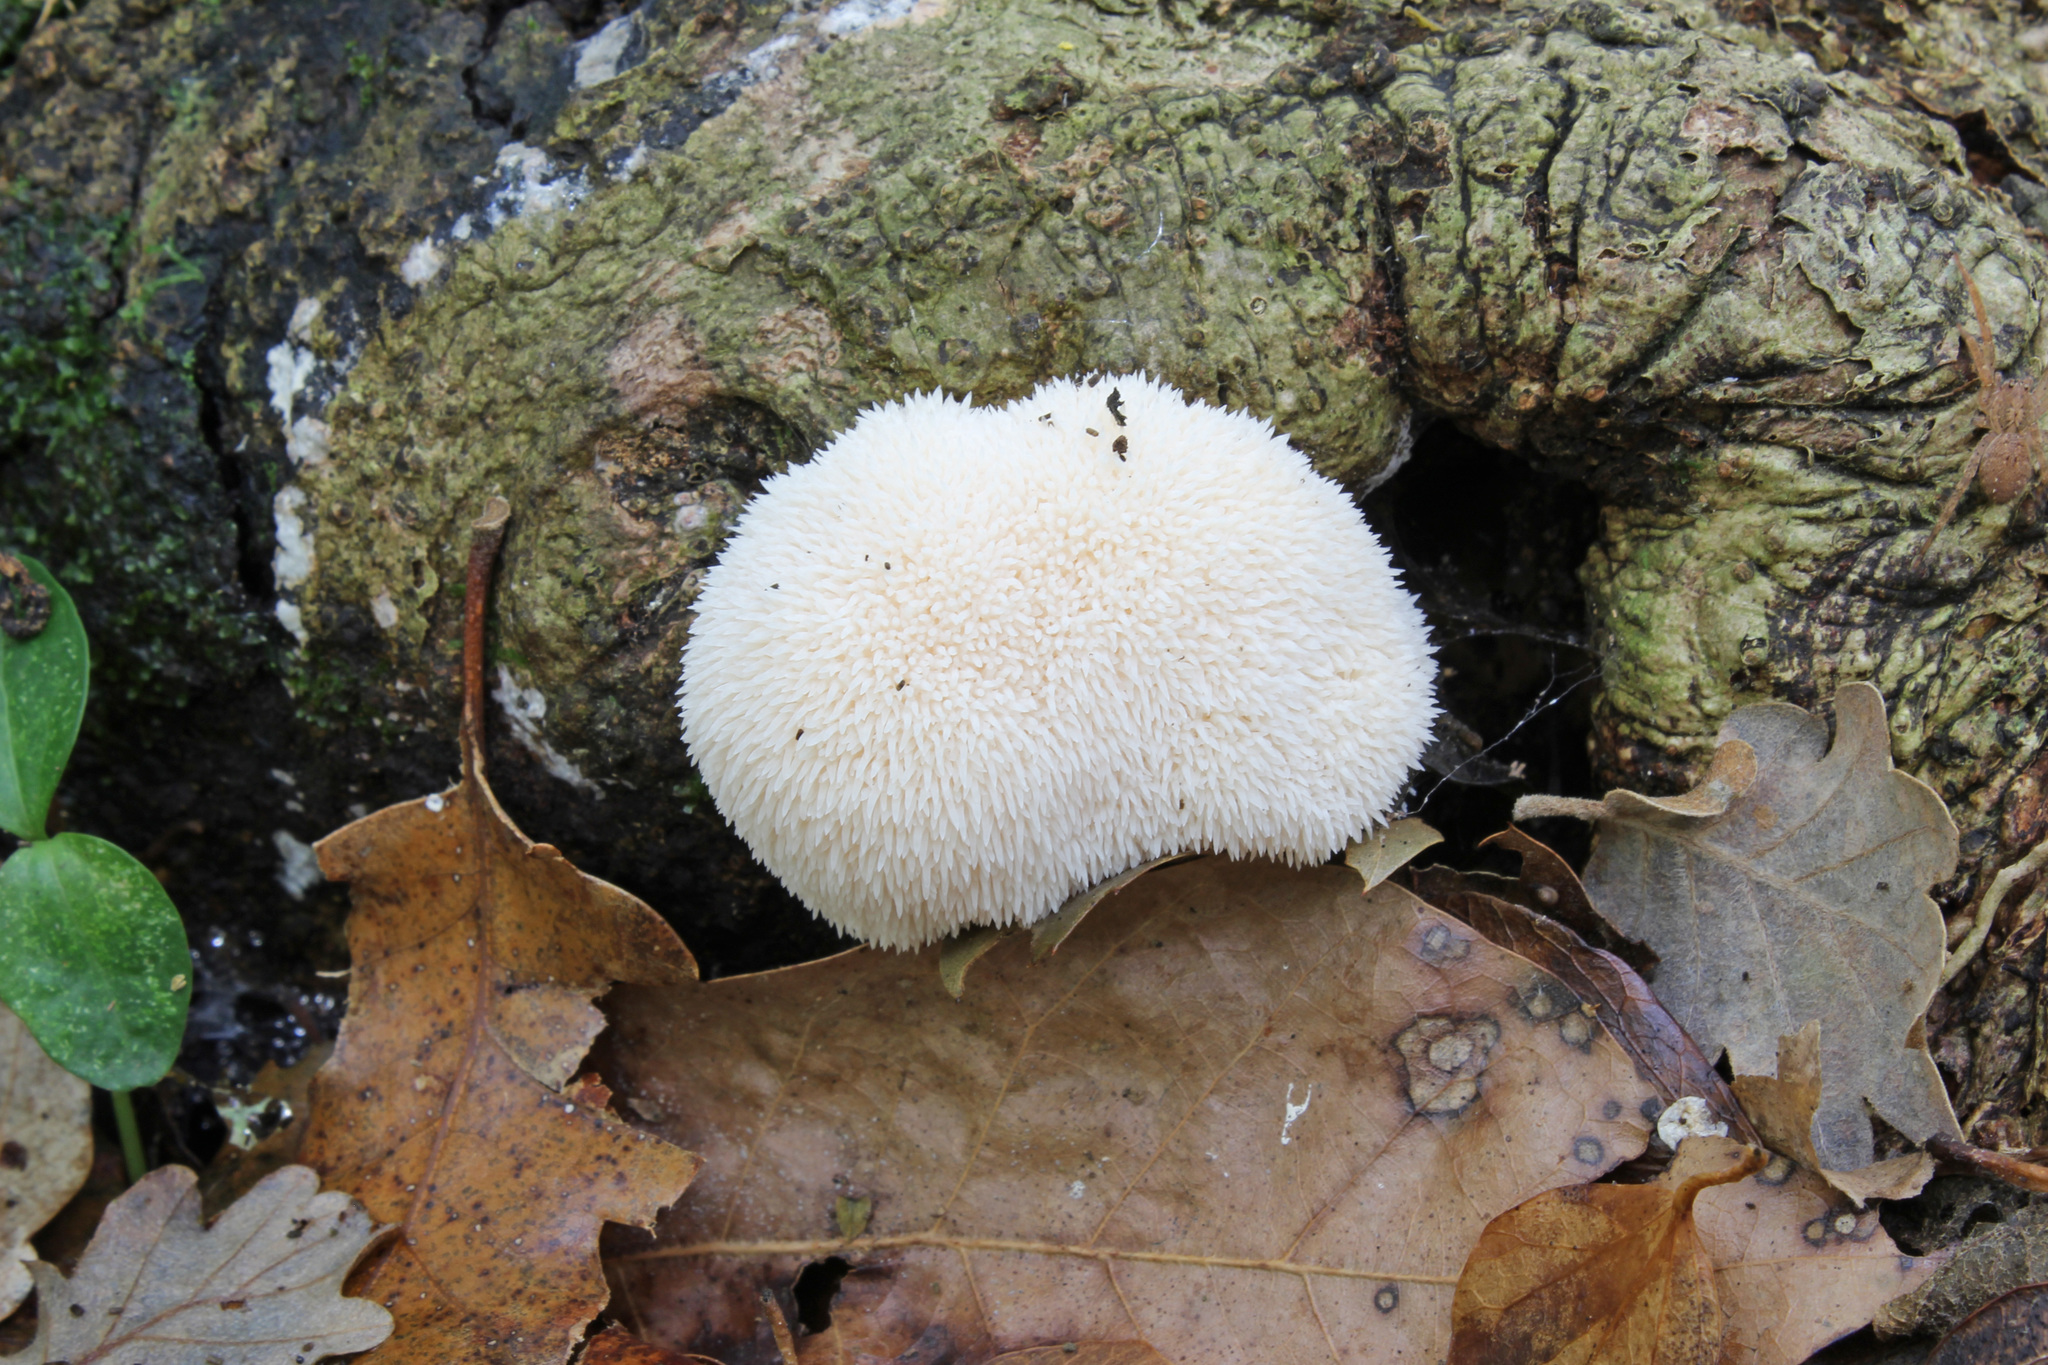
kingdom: Fungi
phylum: Basidiomycota
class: Agaricomycetes
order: Russulales
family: Hericiaceae
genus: Hericium
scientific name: Hericium erinaceus
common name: Bearded tooth
